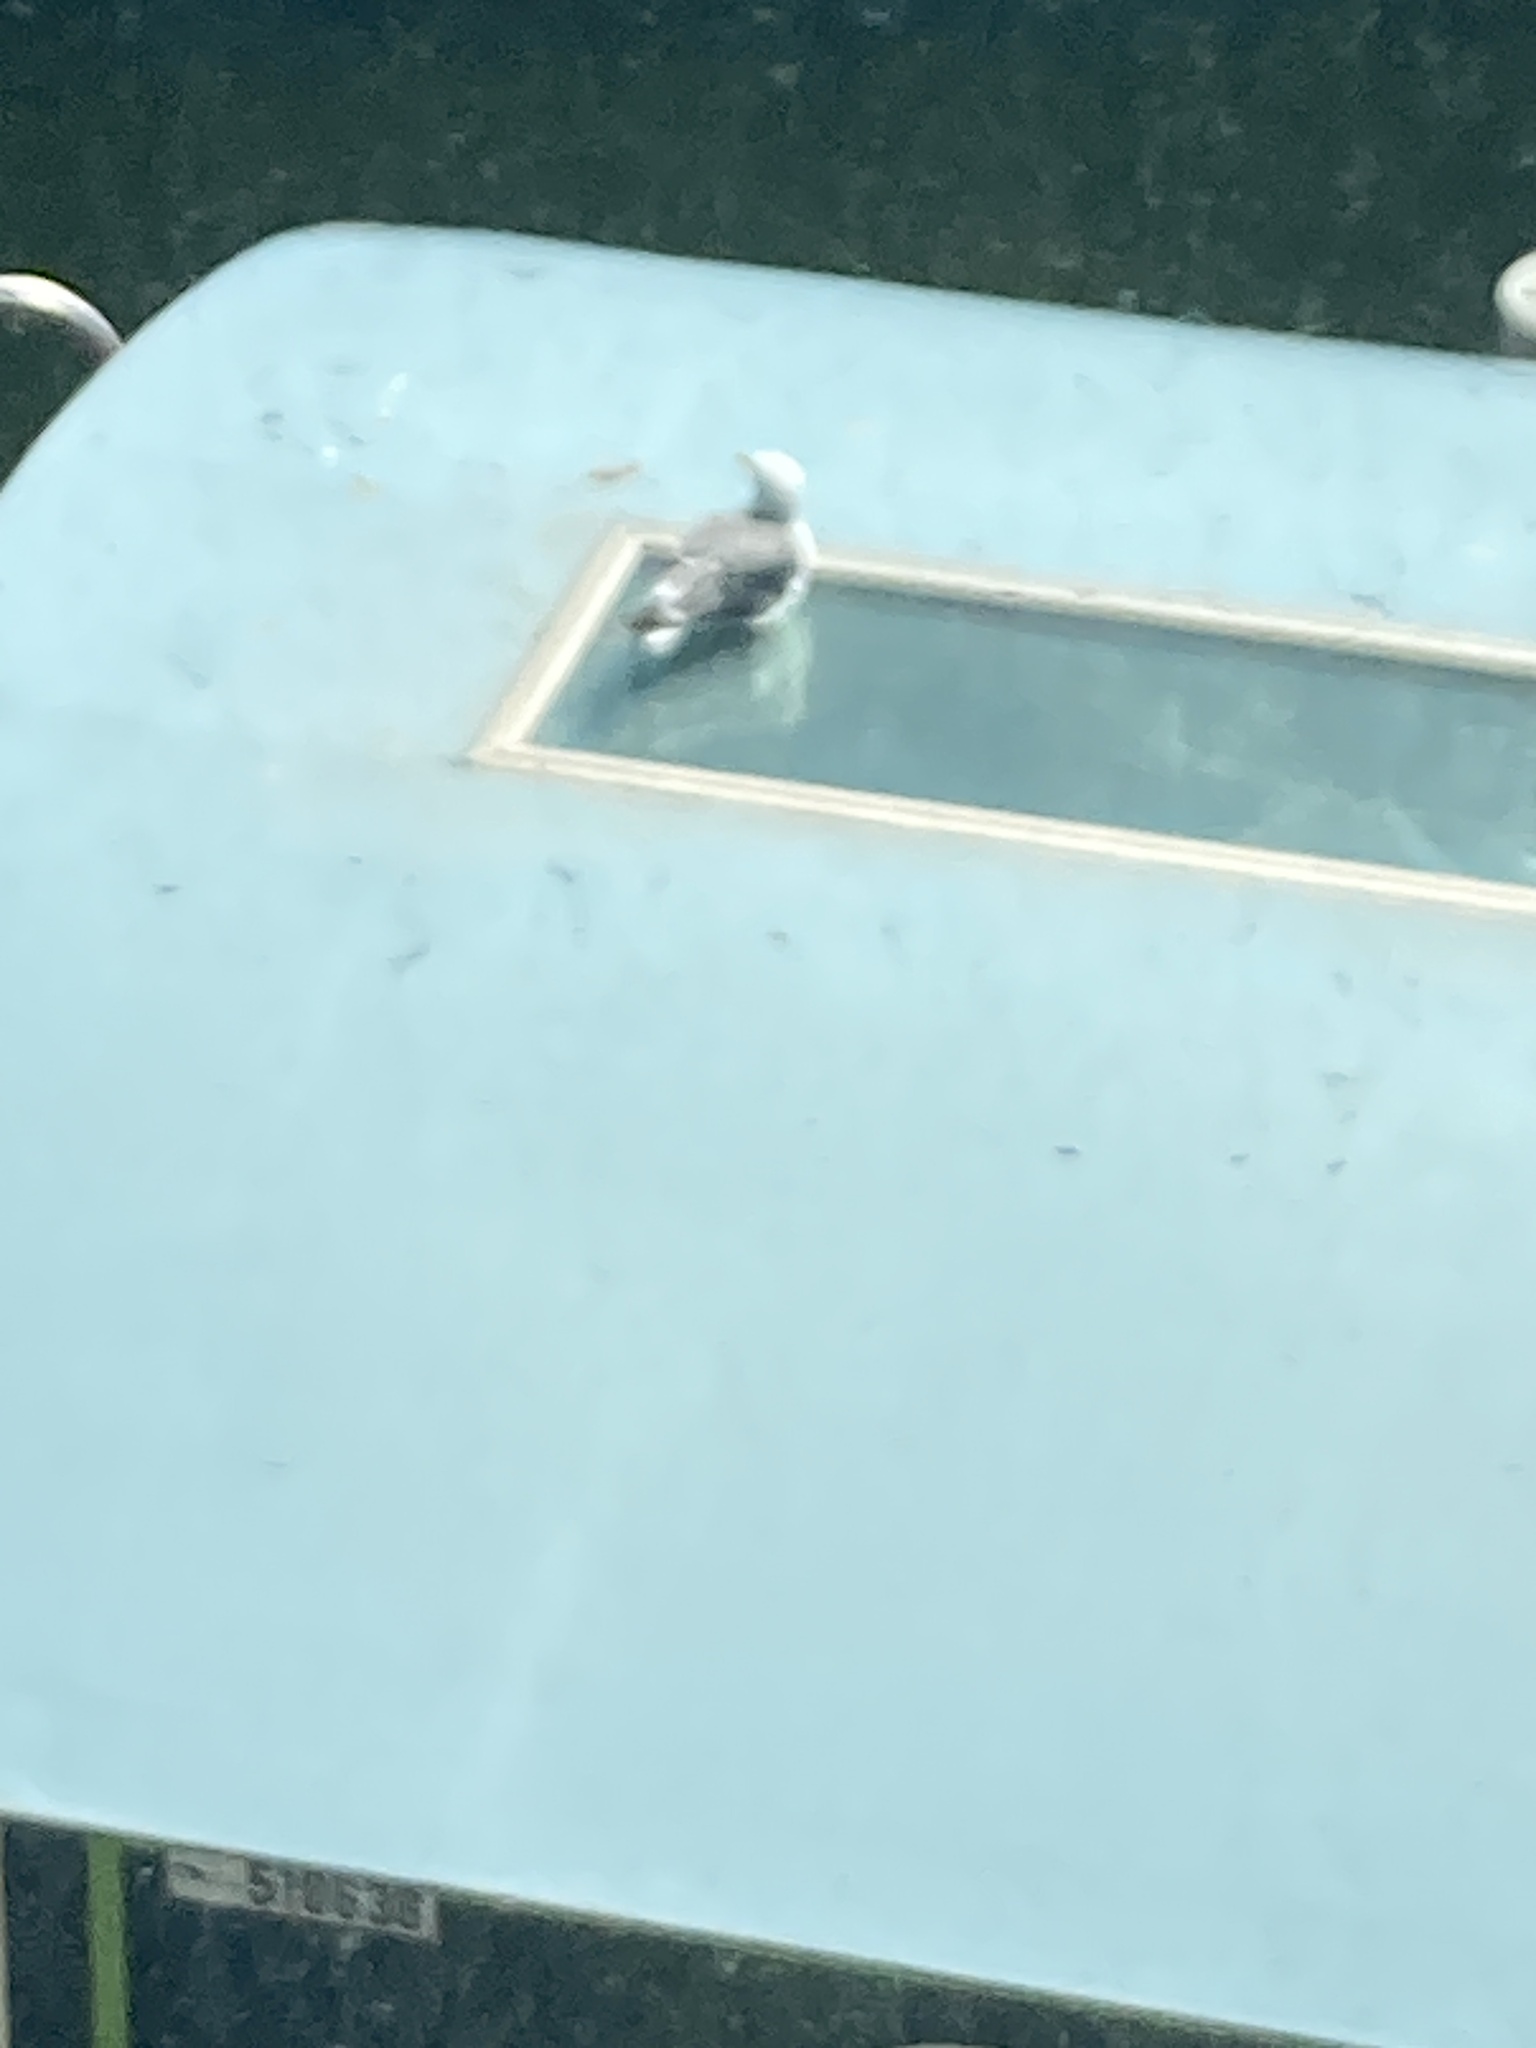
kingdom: Animalia
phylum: Chordata
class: Aves
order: Charadriiformes
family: Laridae
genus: Larus
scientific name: Larus fuscus
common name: Lesser black-backed gull
